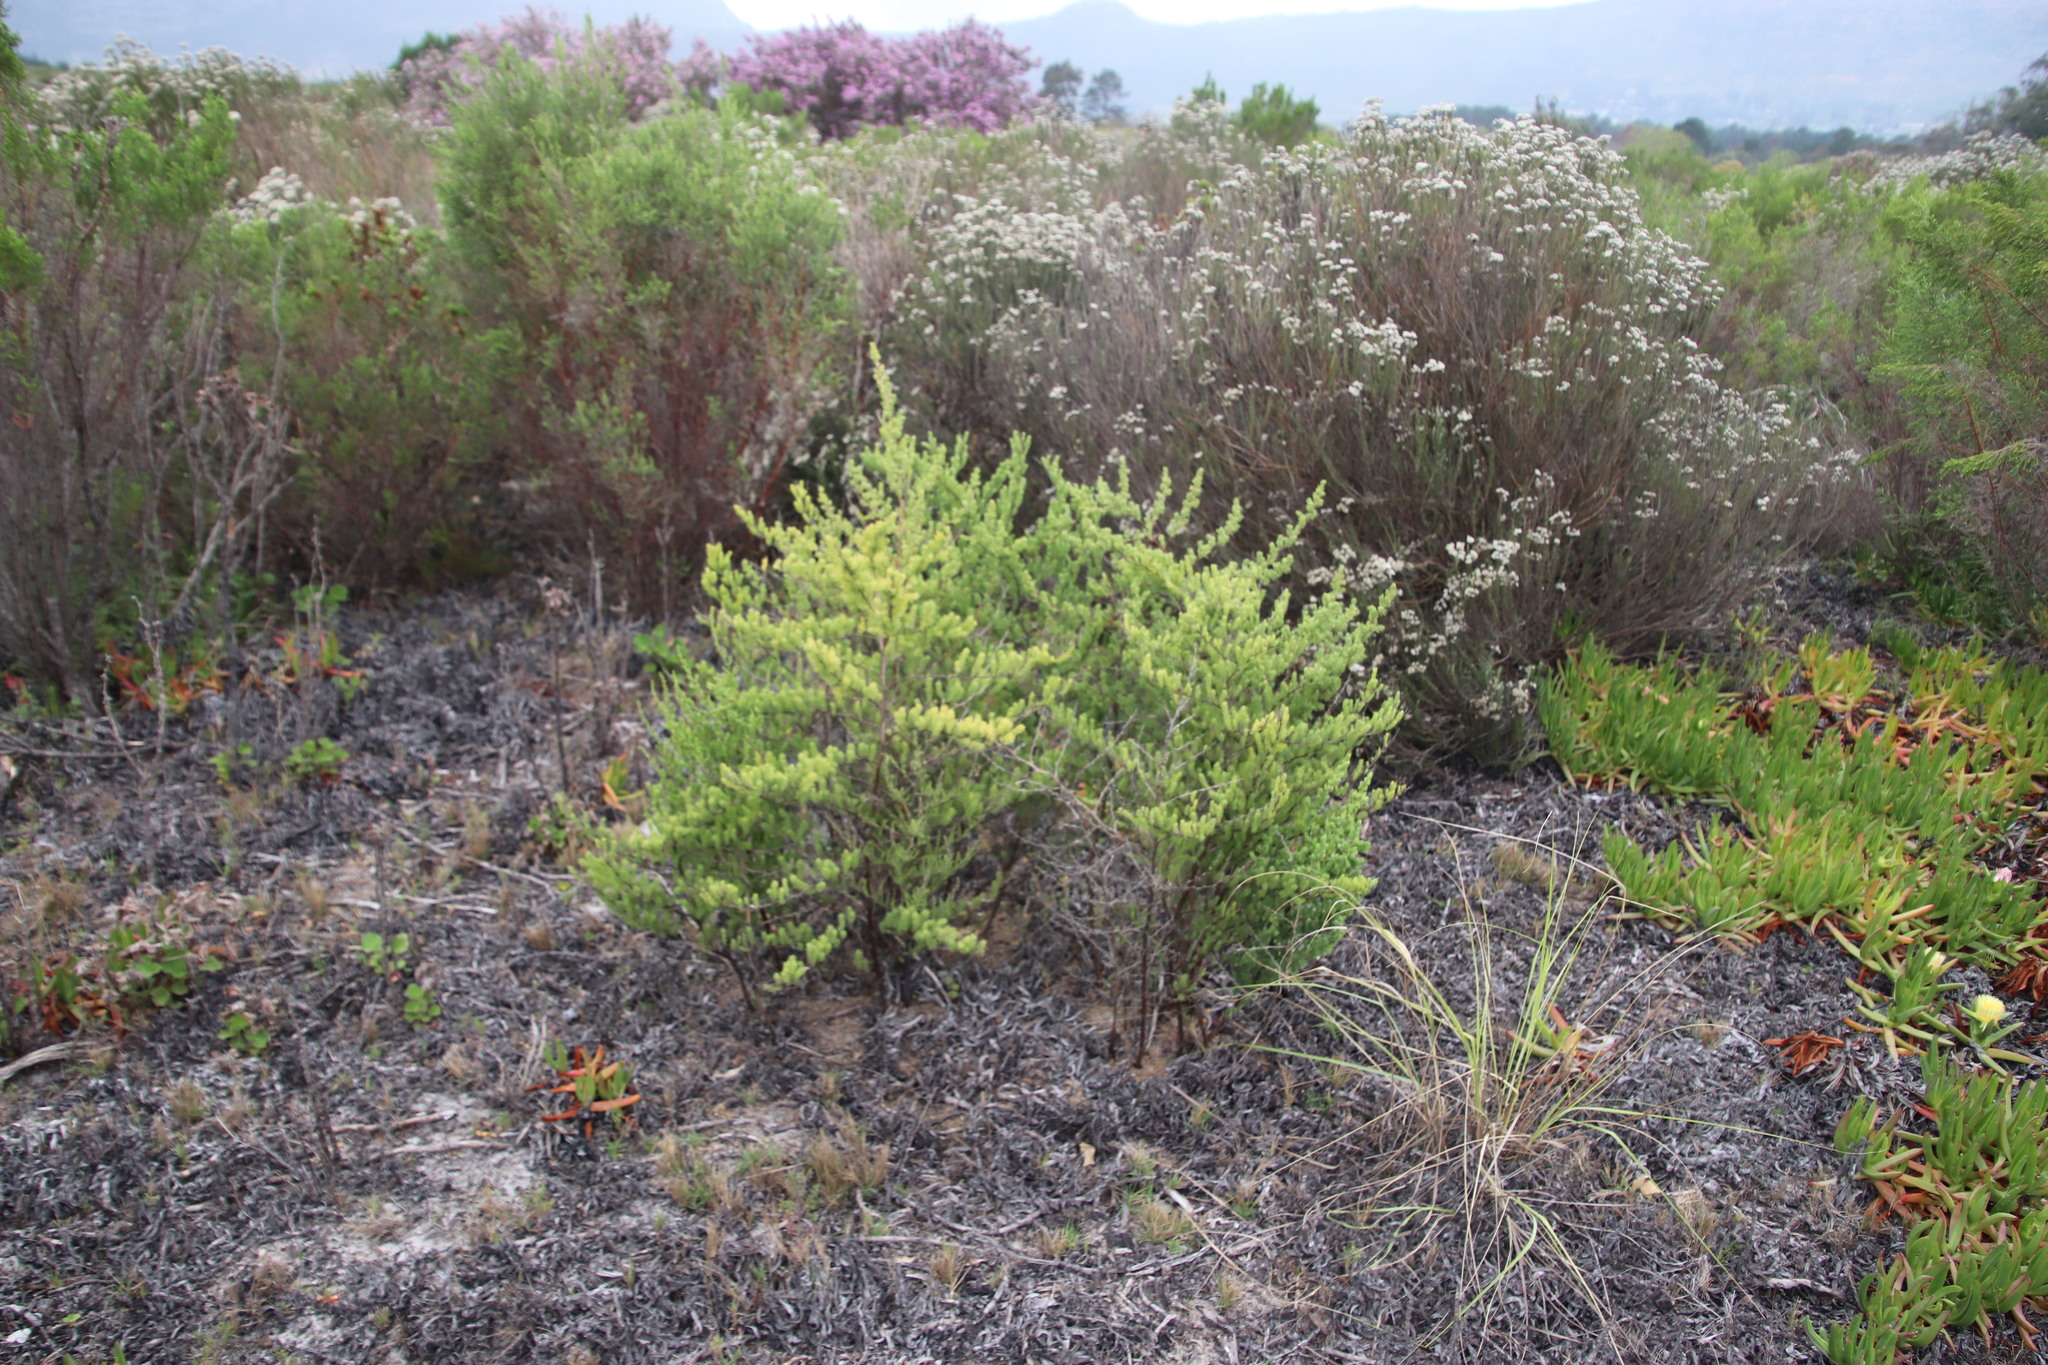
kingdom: Plantae
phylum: Tracheophyta
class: Liliopsida
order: Asparagales
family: Asparagaceae
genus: Asparagus
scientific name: Asparagus rubicundus
